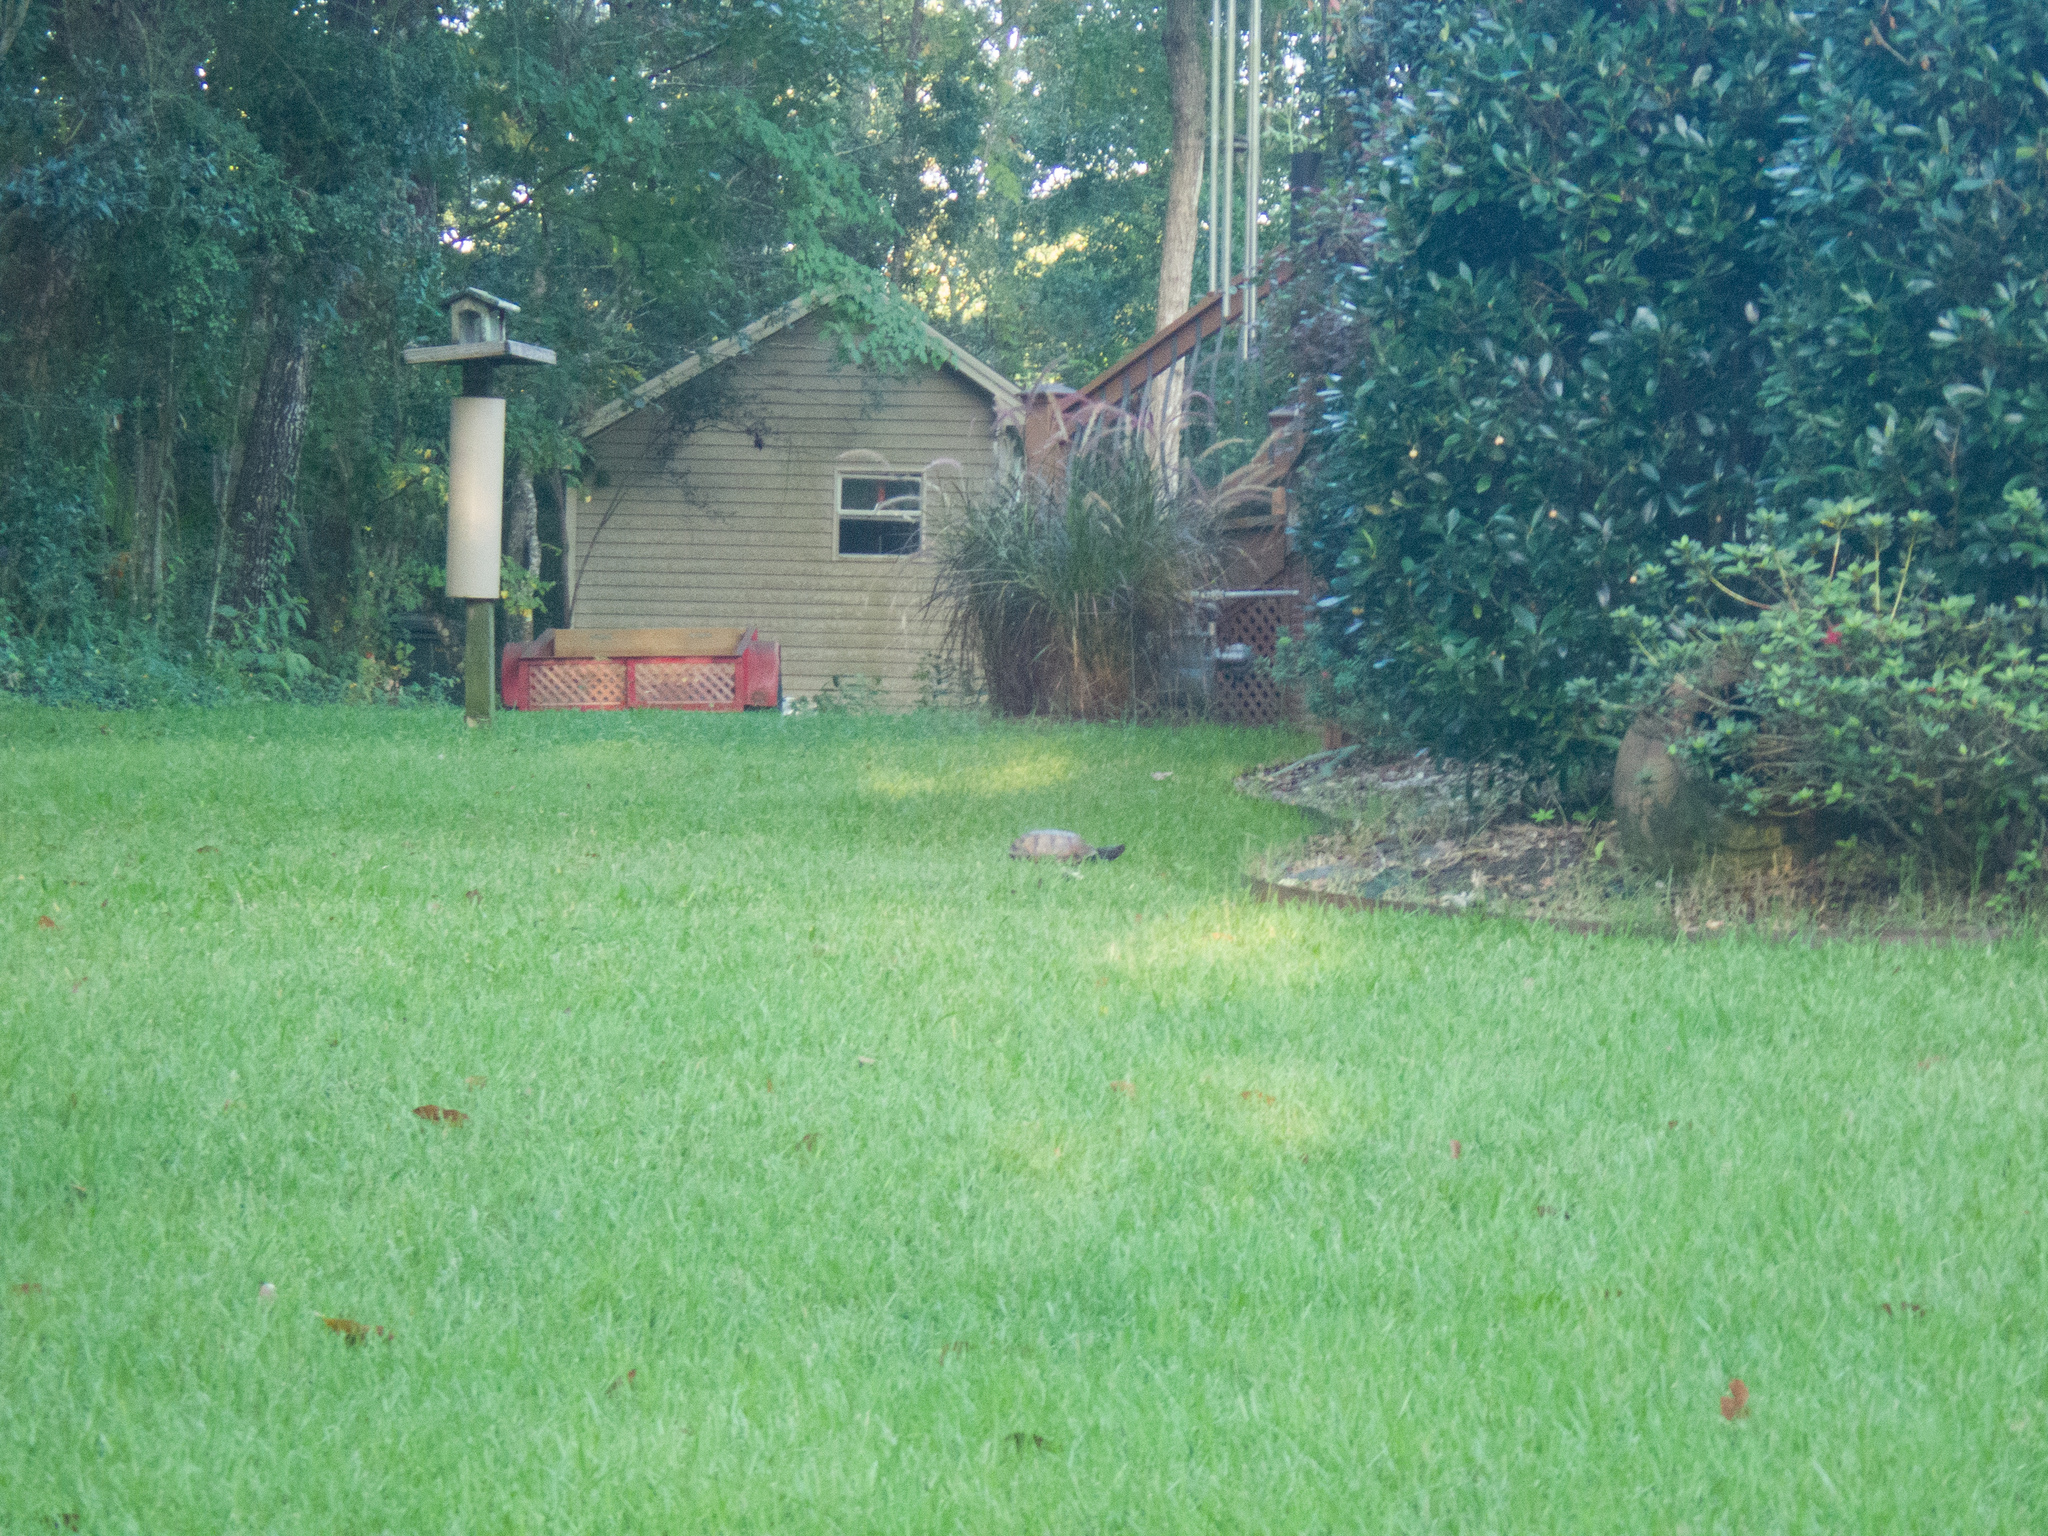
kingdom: Animalia
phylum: Chordata
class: Testudines
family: Emydidae
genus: Terrapene
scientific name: Terrapene carolina
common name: Common box turtle
